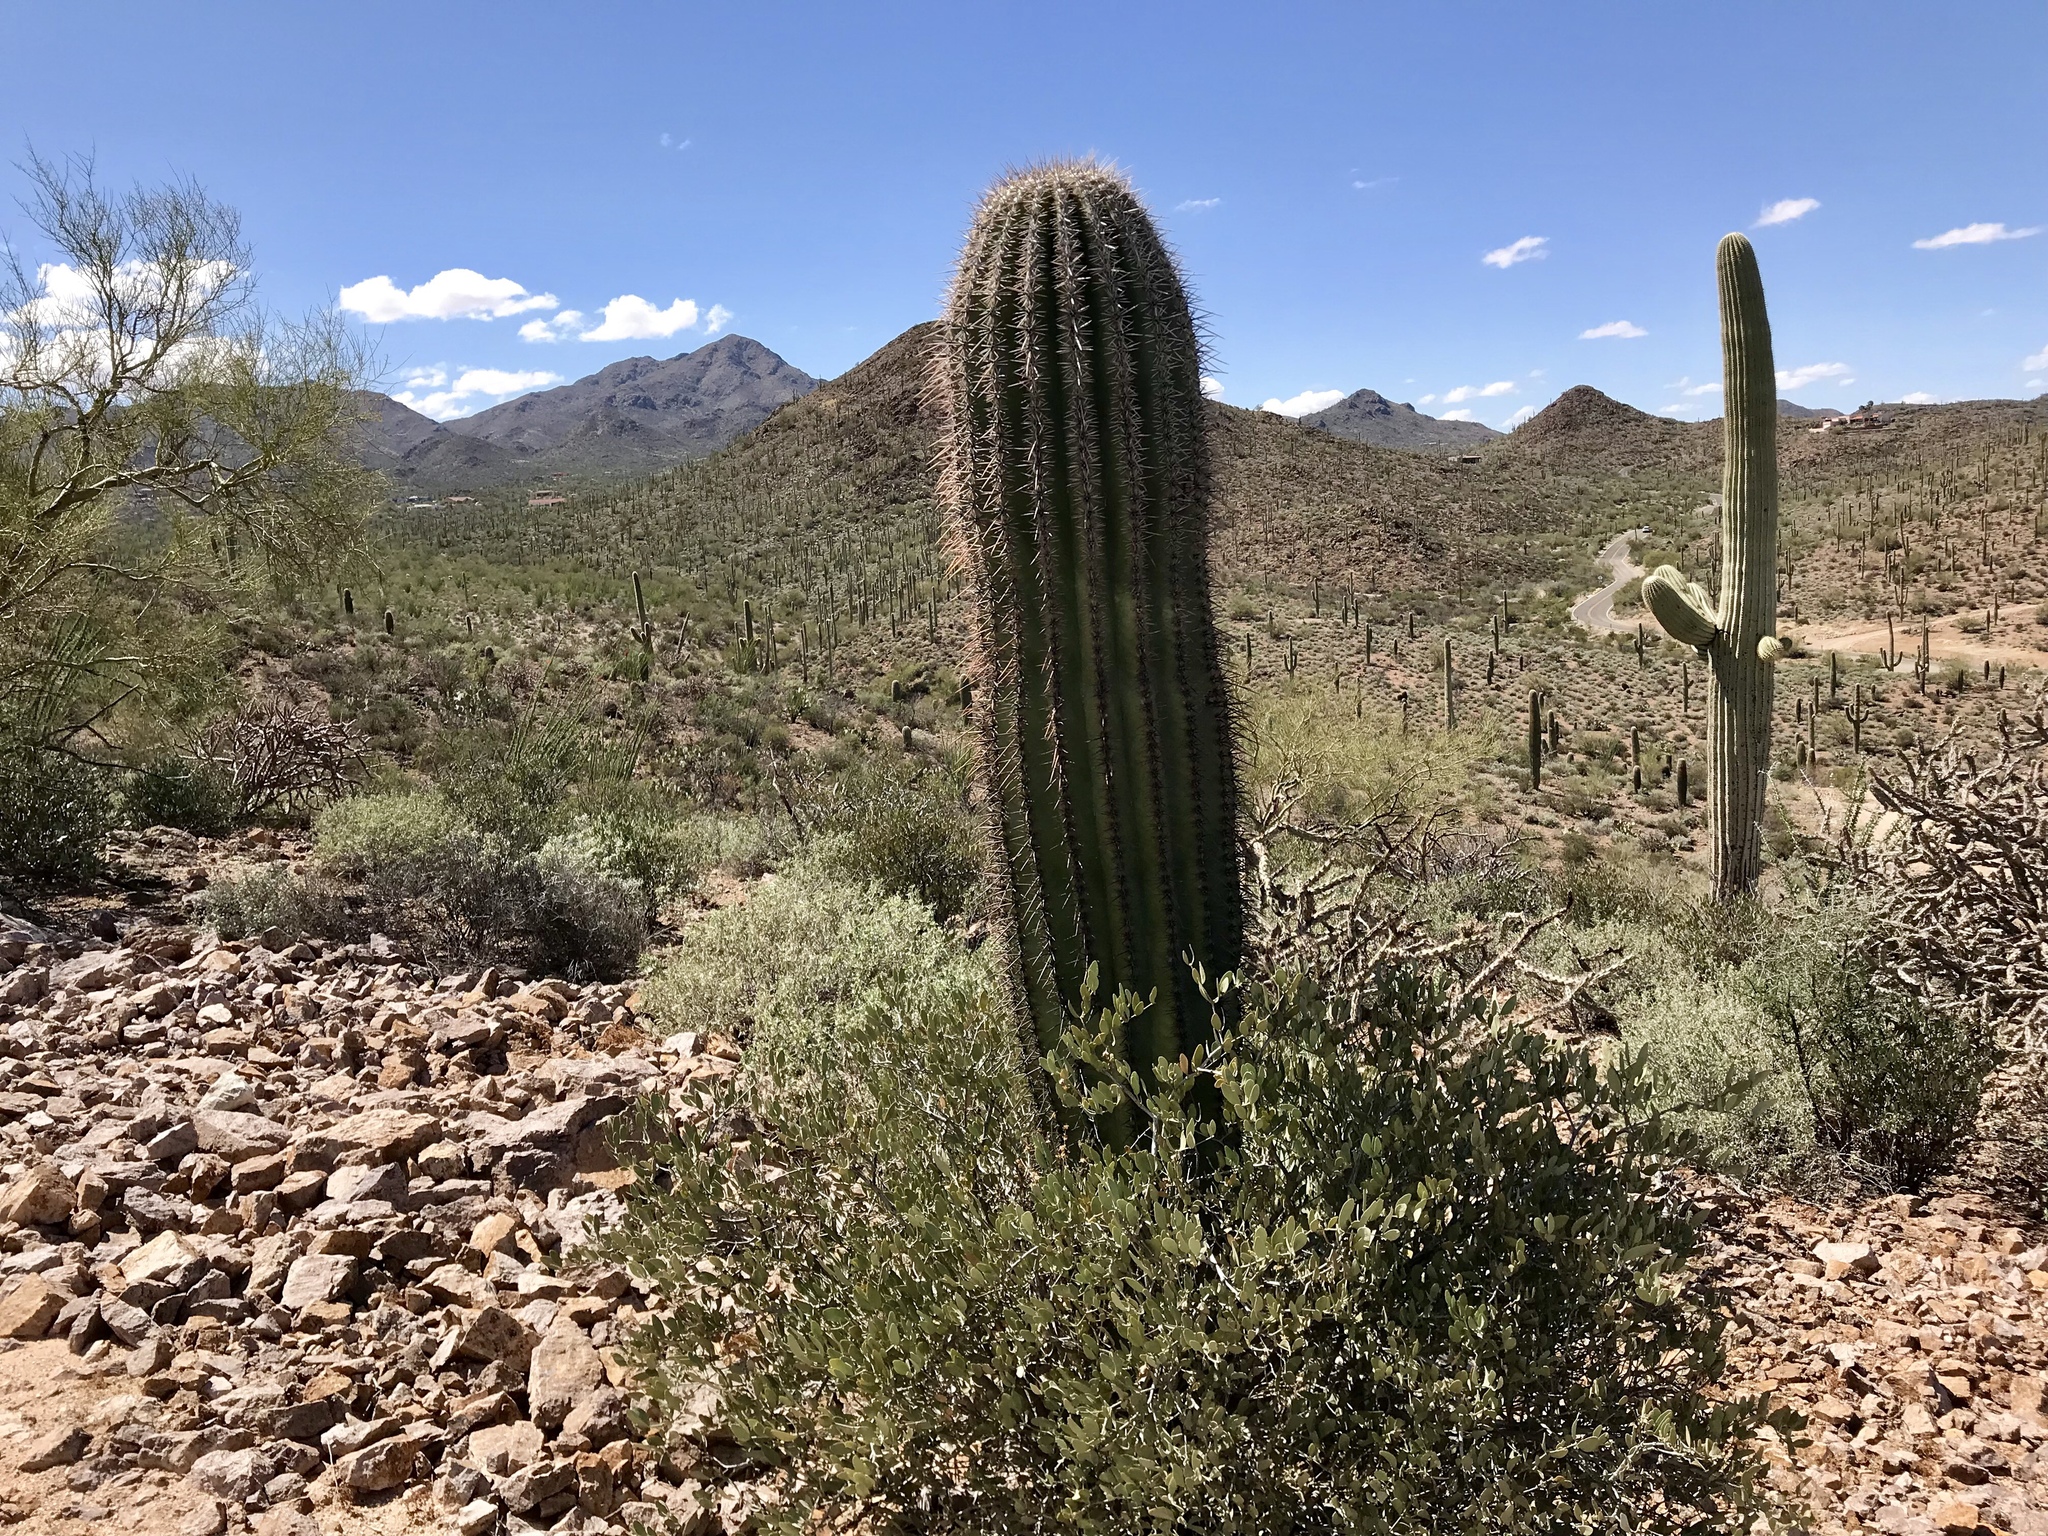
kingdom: Plantae
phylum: Tracheophyta
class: Magnoliopsida
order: Caryophyllales
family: Cactaceae
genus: Carnegiea
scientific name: Carnegiea gigantea
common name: Saguaro
